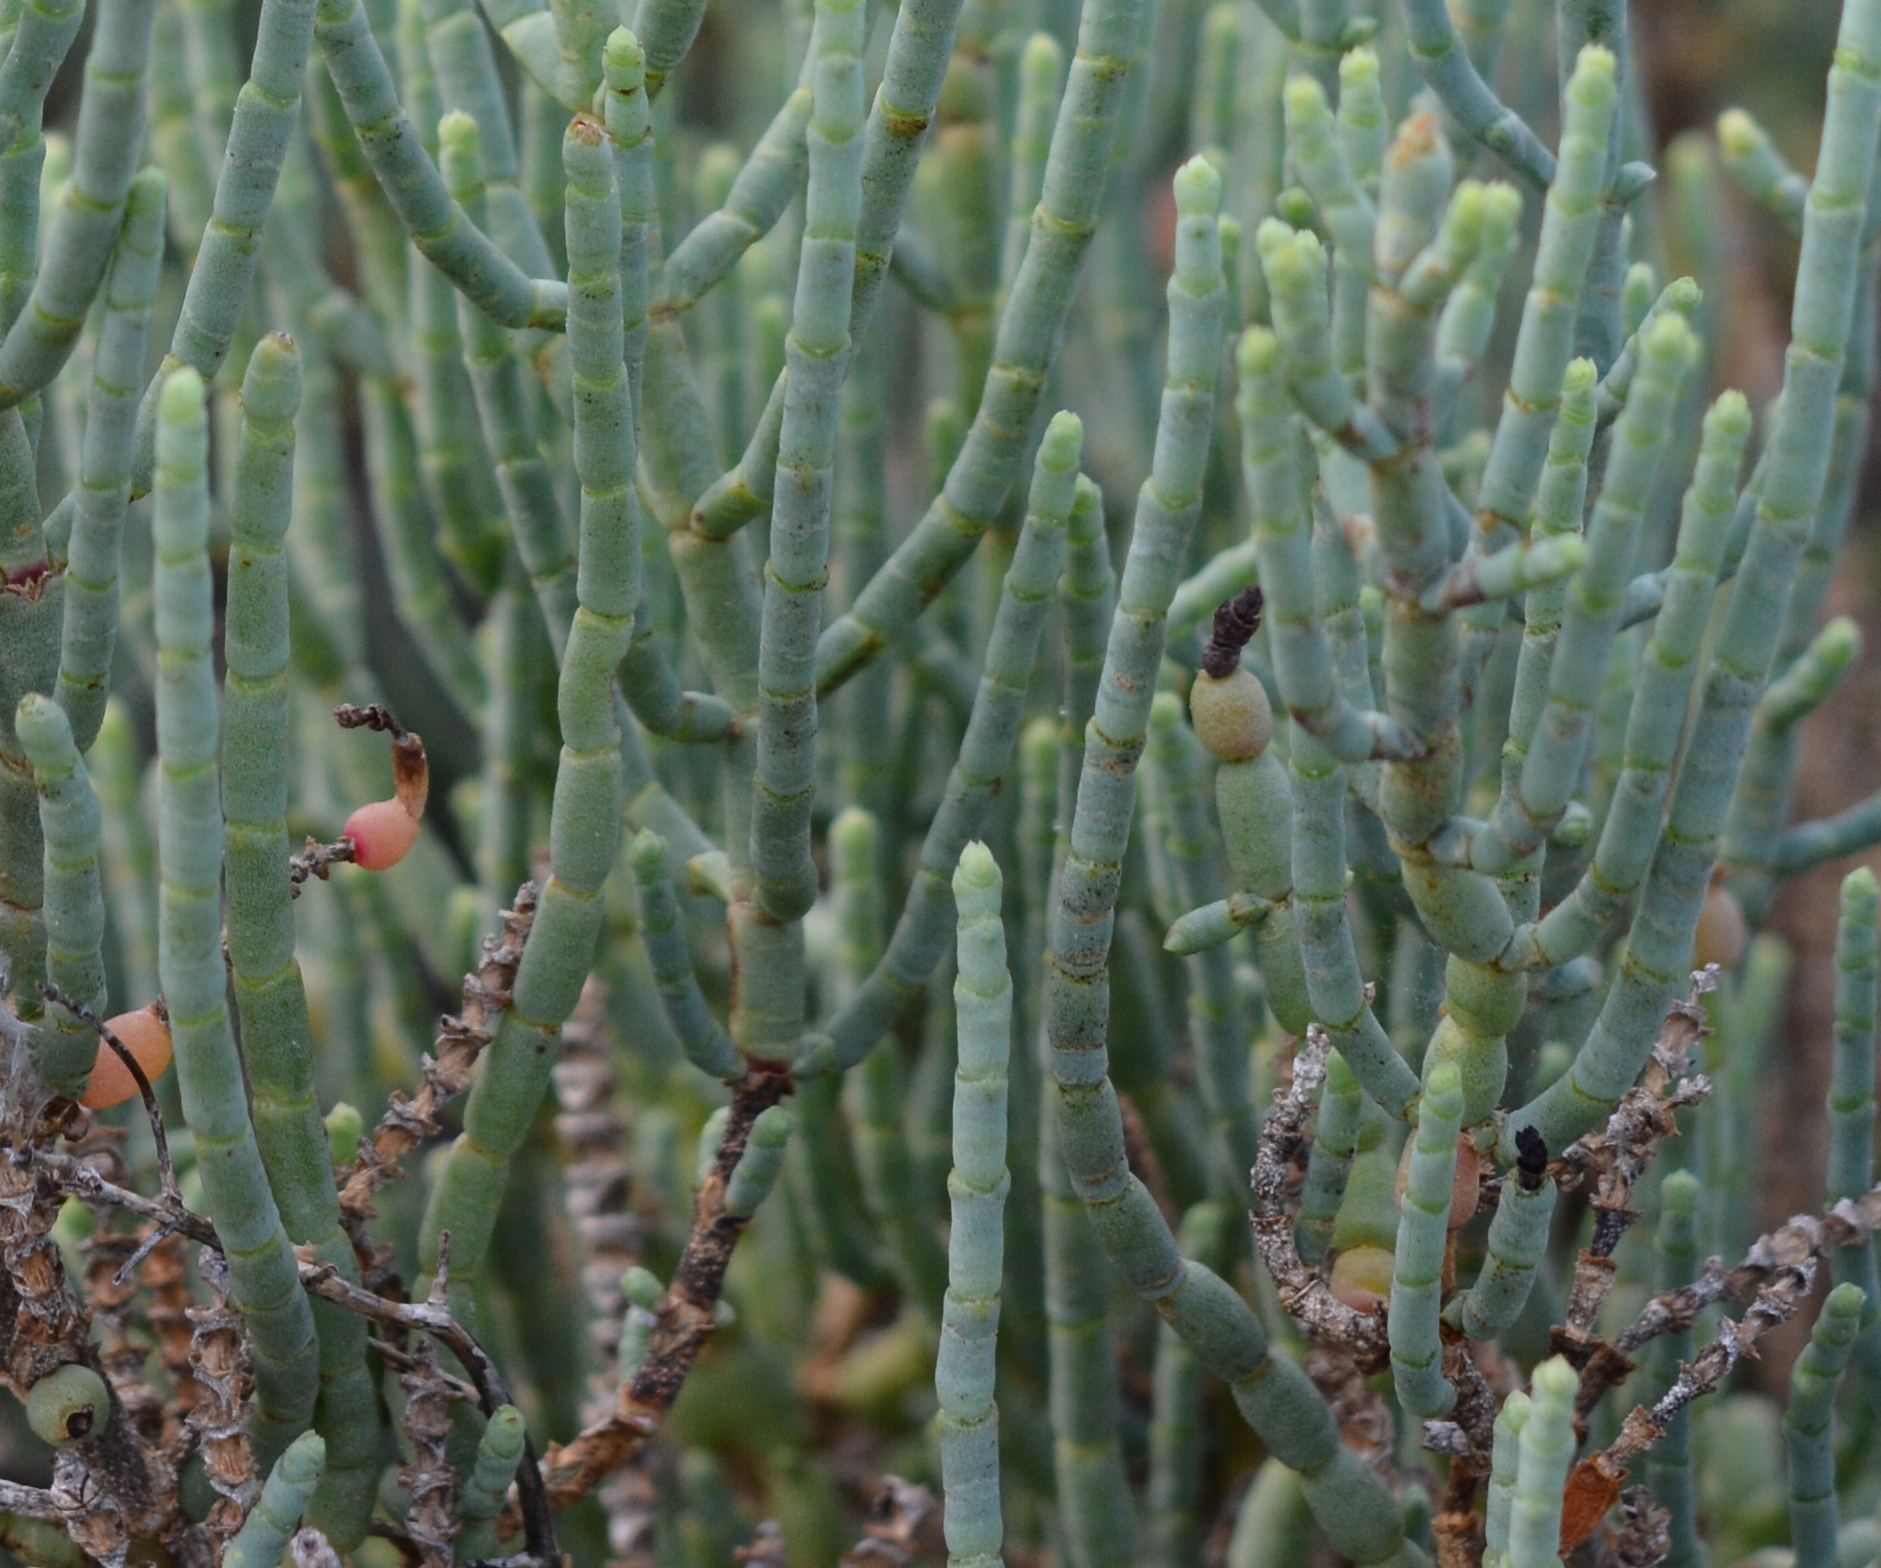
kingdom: Plantae
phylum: Tracheophyta
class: Magnoliopsida
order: Caryophyllales
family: Amaranthaceae
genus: Arthroceras
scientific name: Arthroceras subterminale
